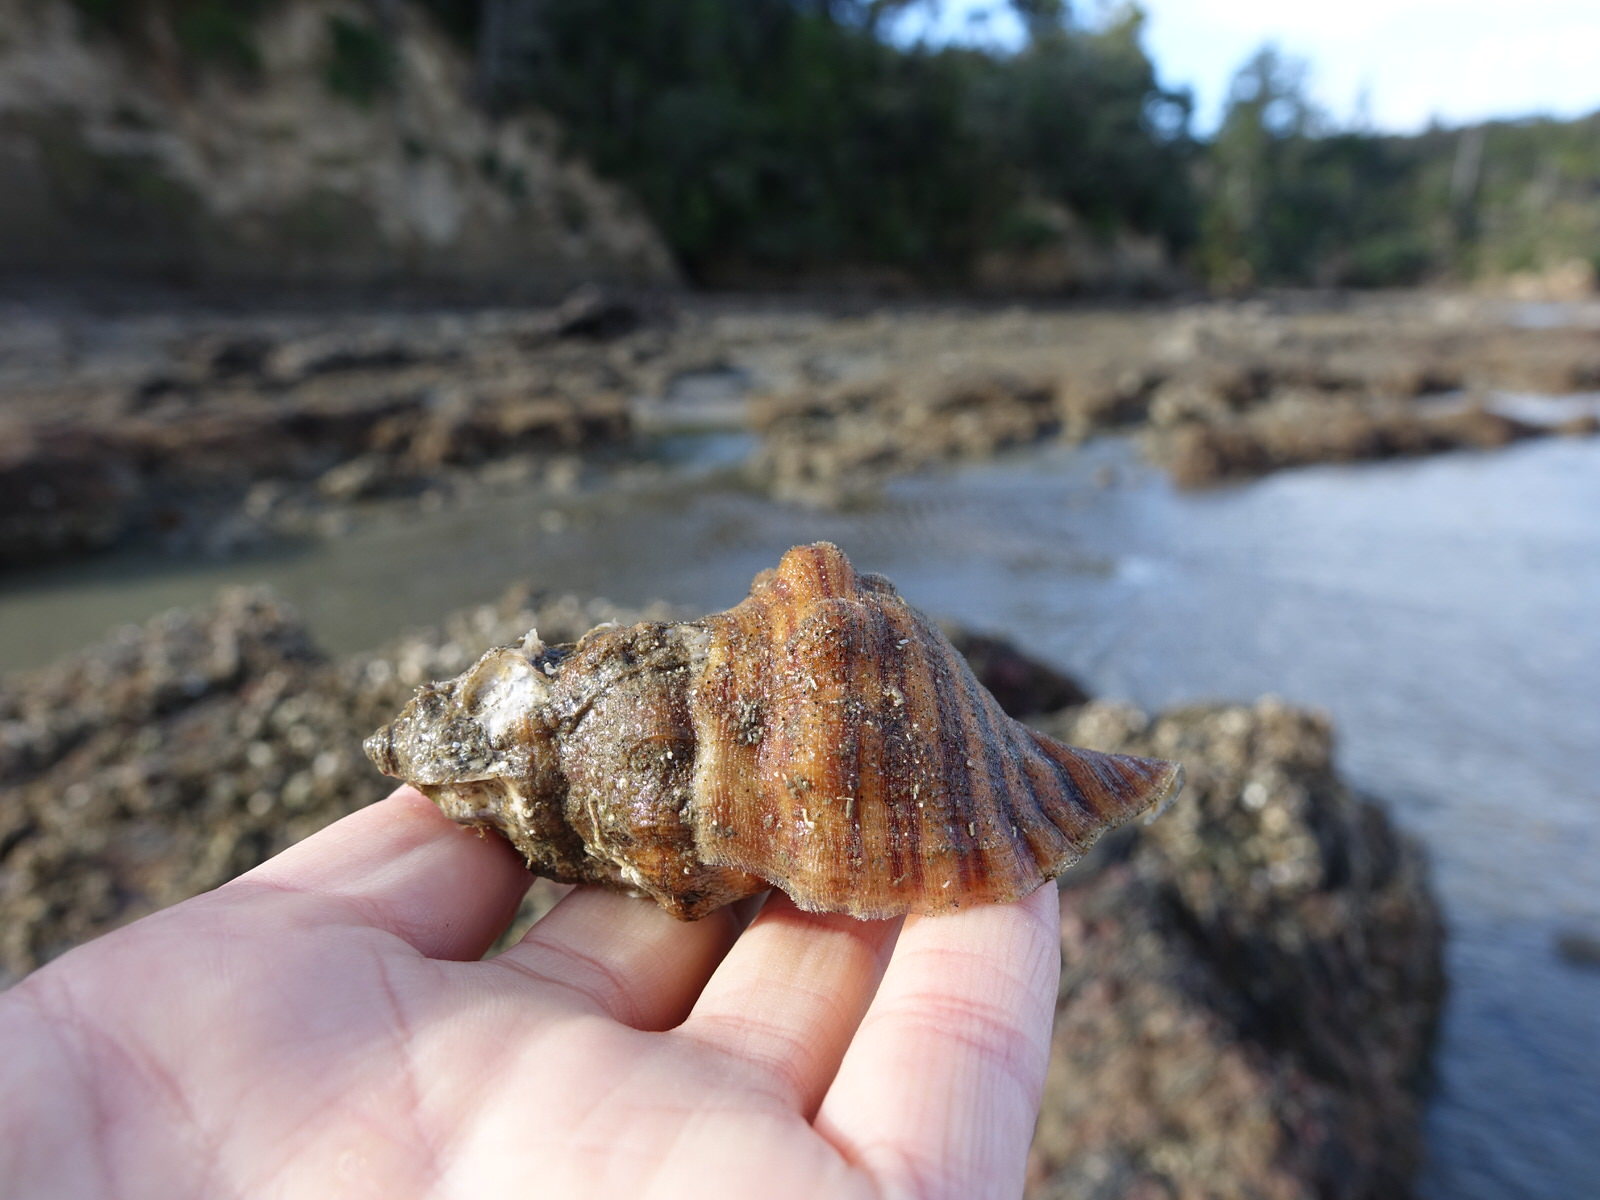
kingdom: Animalia
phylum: Mollusca
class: Gastropoda
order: Littorinimorpha
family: Cymatiidae
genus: Cabestana
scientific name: Cabestana spengleri
